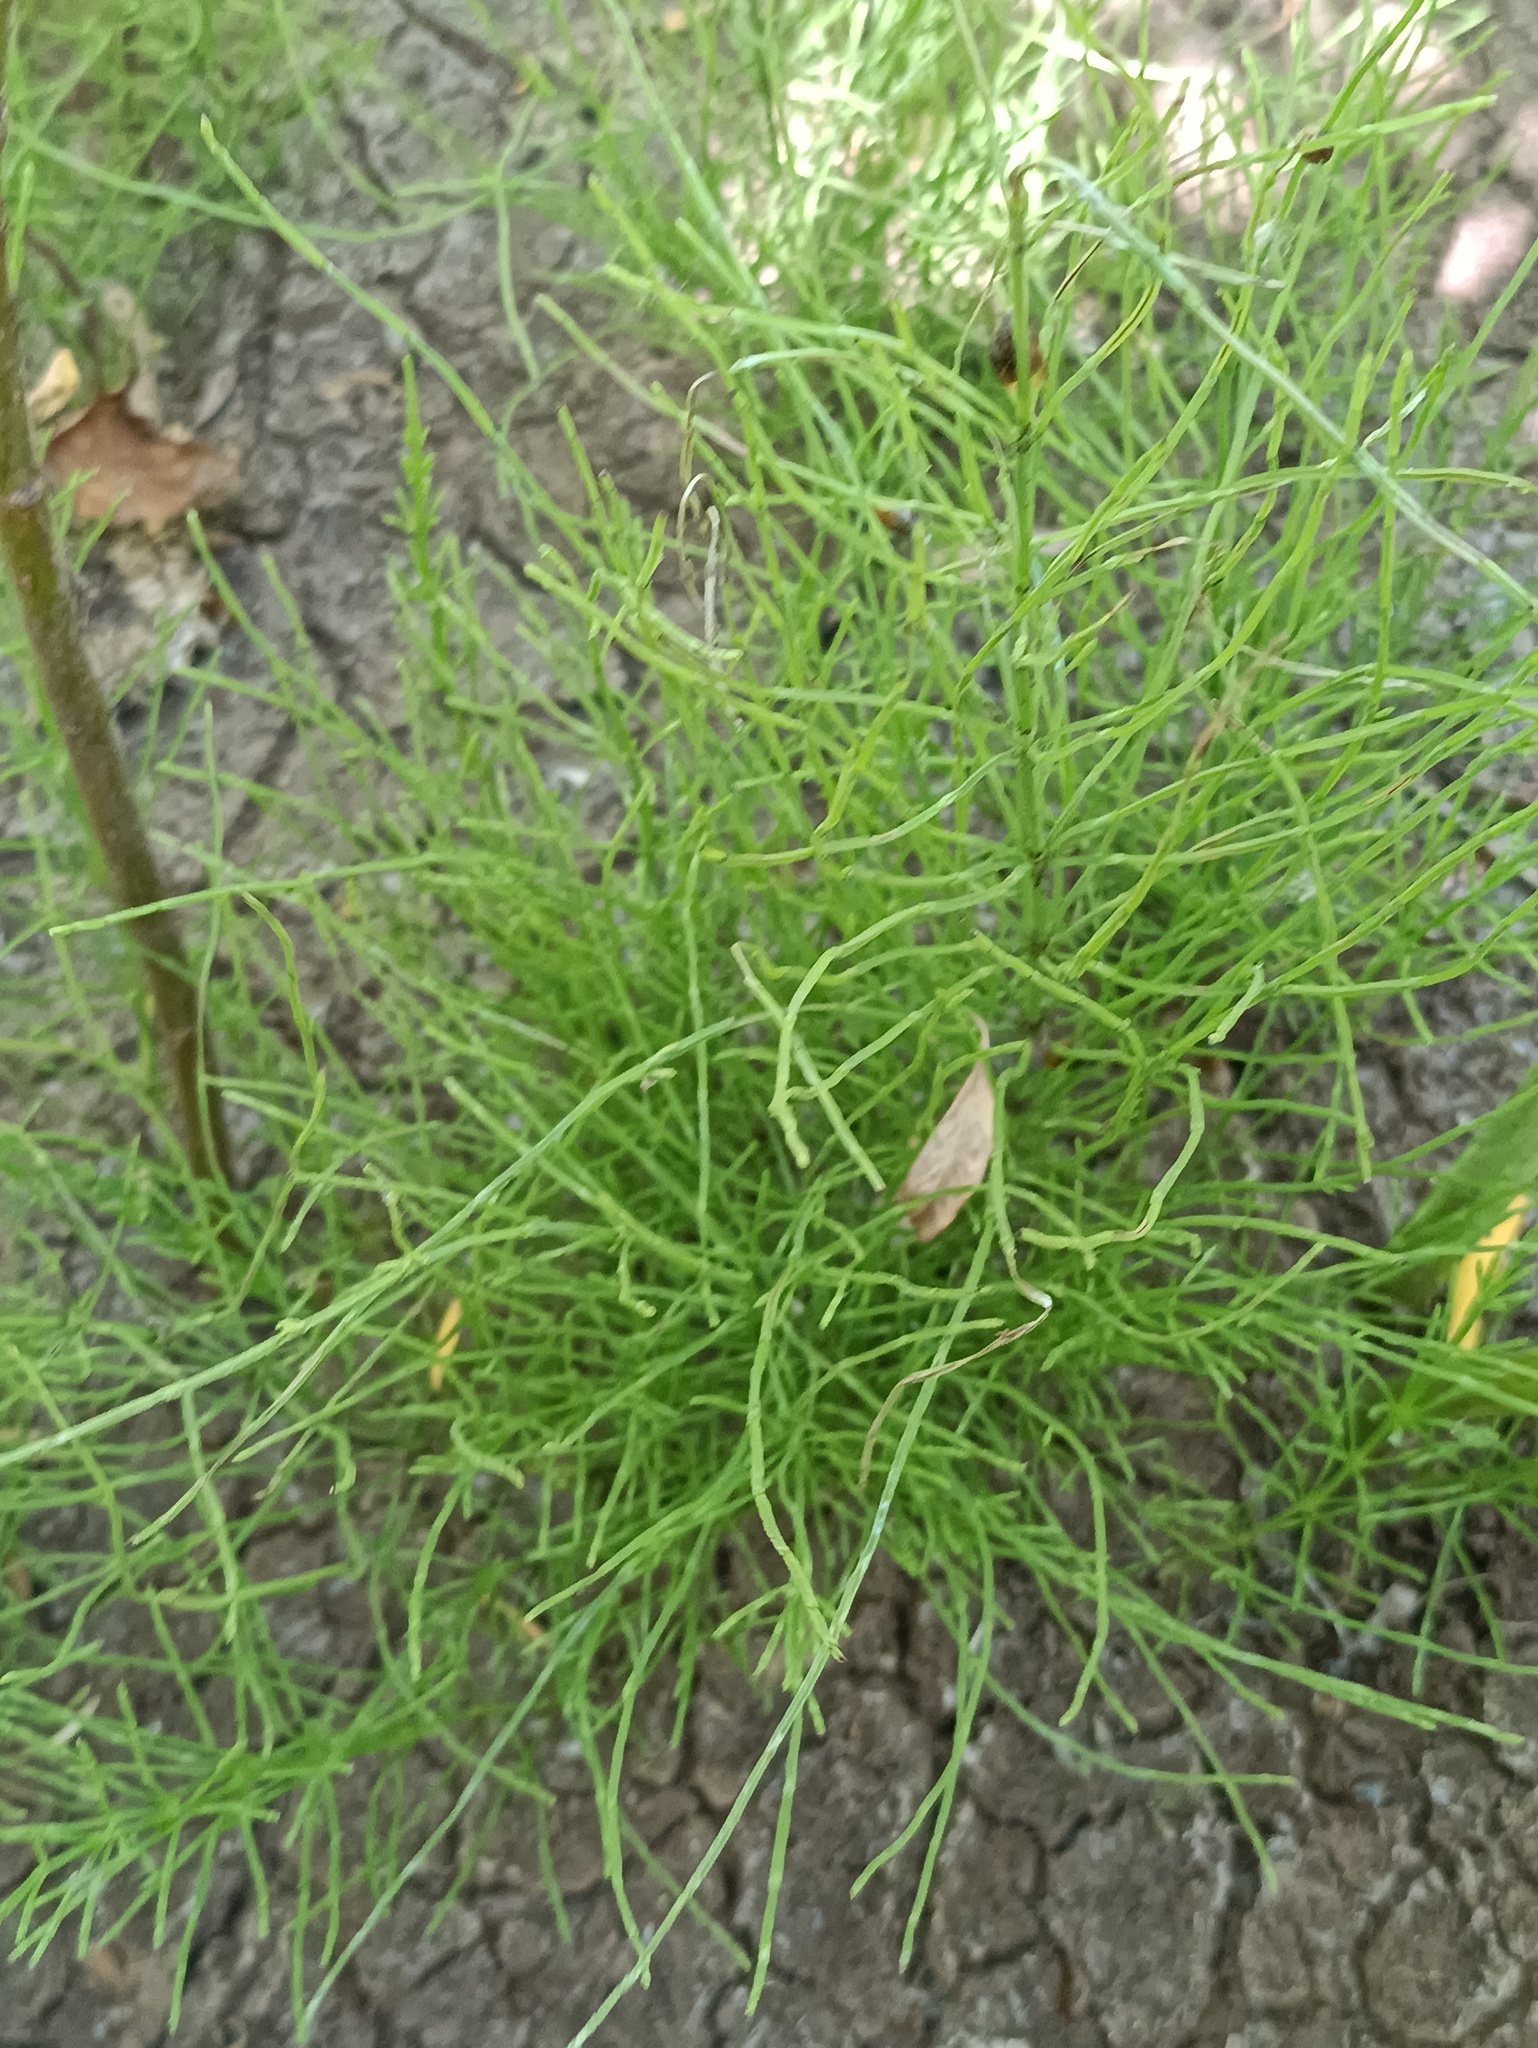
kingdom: Plantae
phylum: Tracheophyta
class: Polypodiopsida
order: Equisetales
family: Equisetaceae
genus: Equisetum
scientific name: Equisetum arvense
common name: Field horsetail
